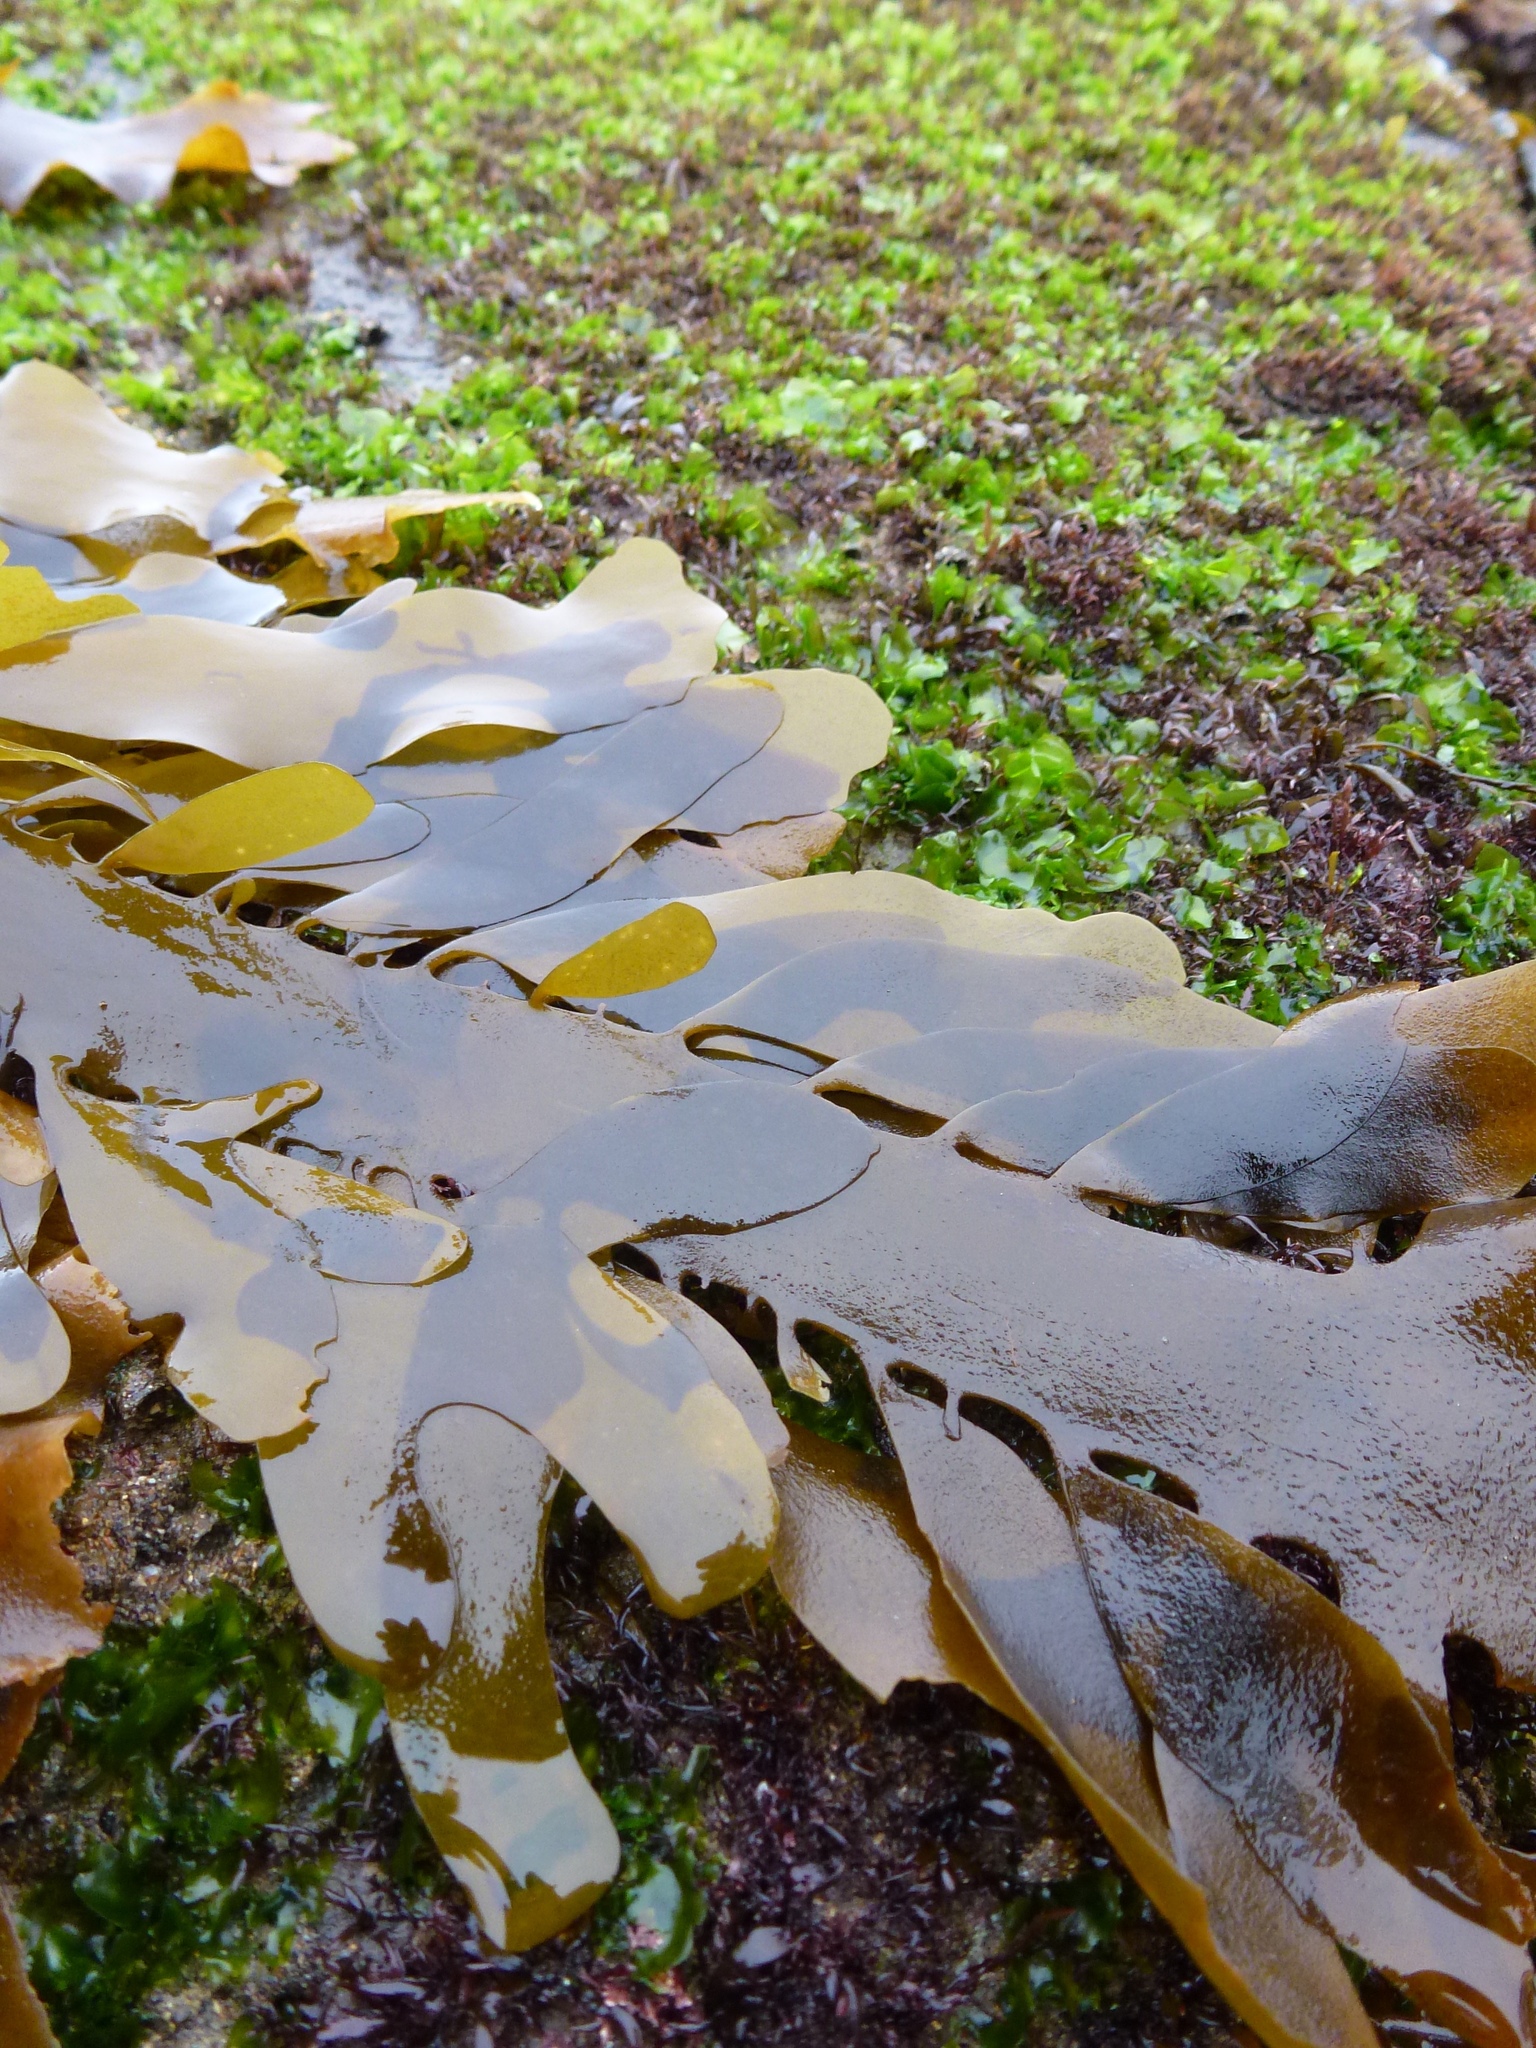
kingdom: Chromista
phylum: Ochrophyta
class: Phaeophyceae
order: Laminariales
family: Lessoniaceae
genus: Egregia
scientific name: Egregia menziesii
